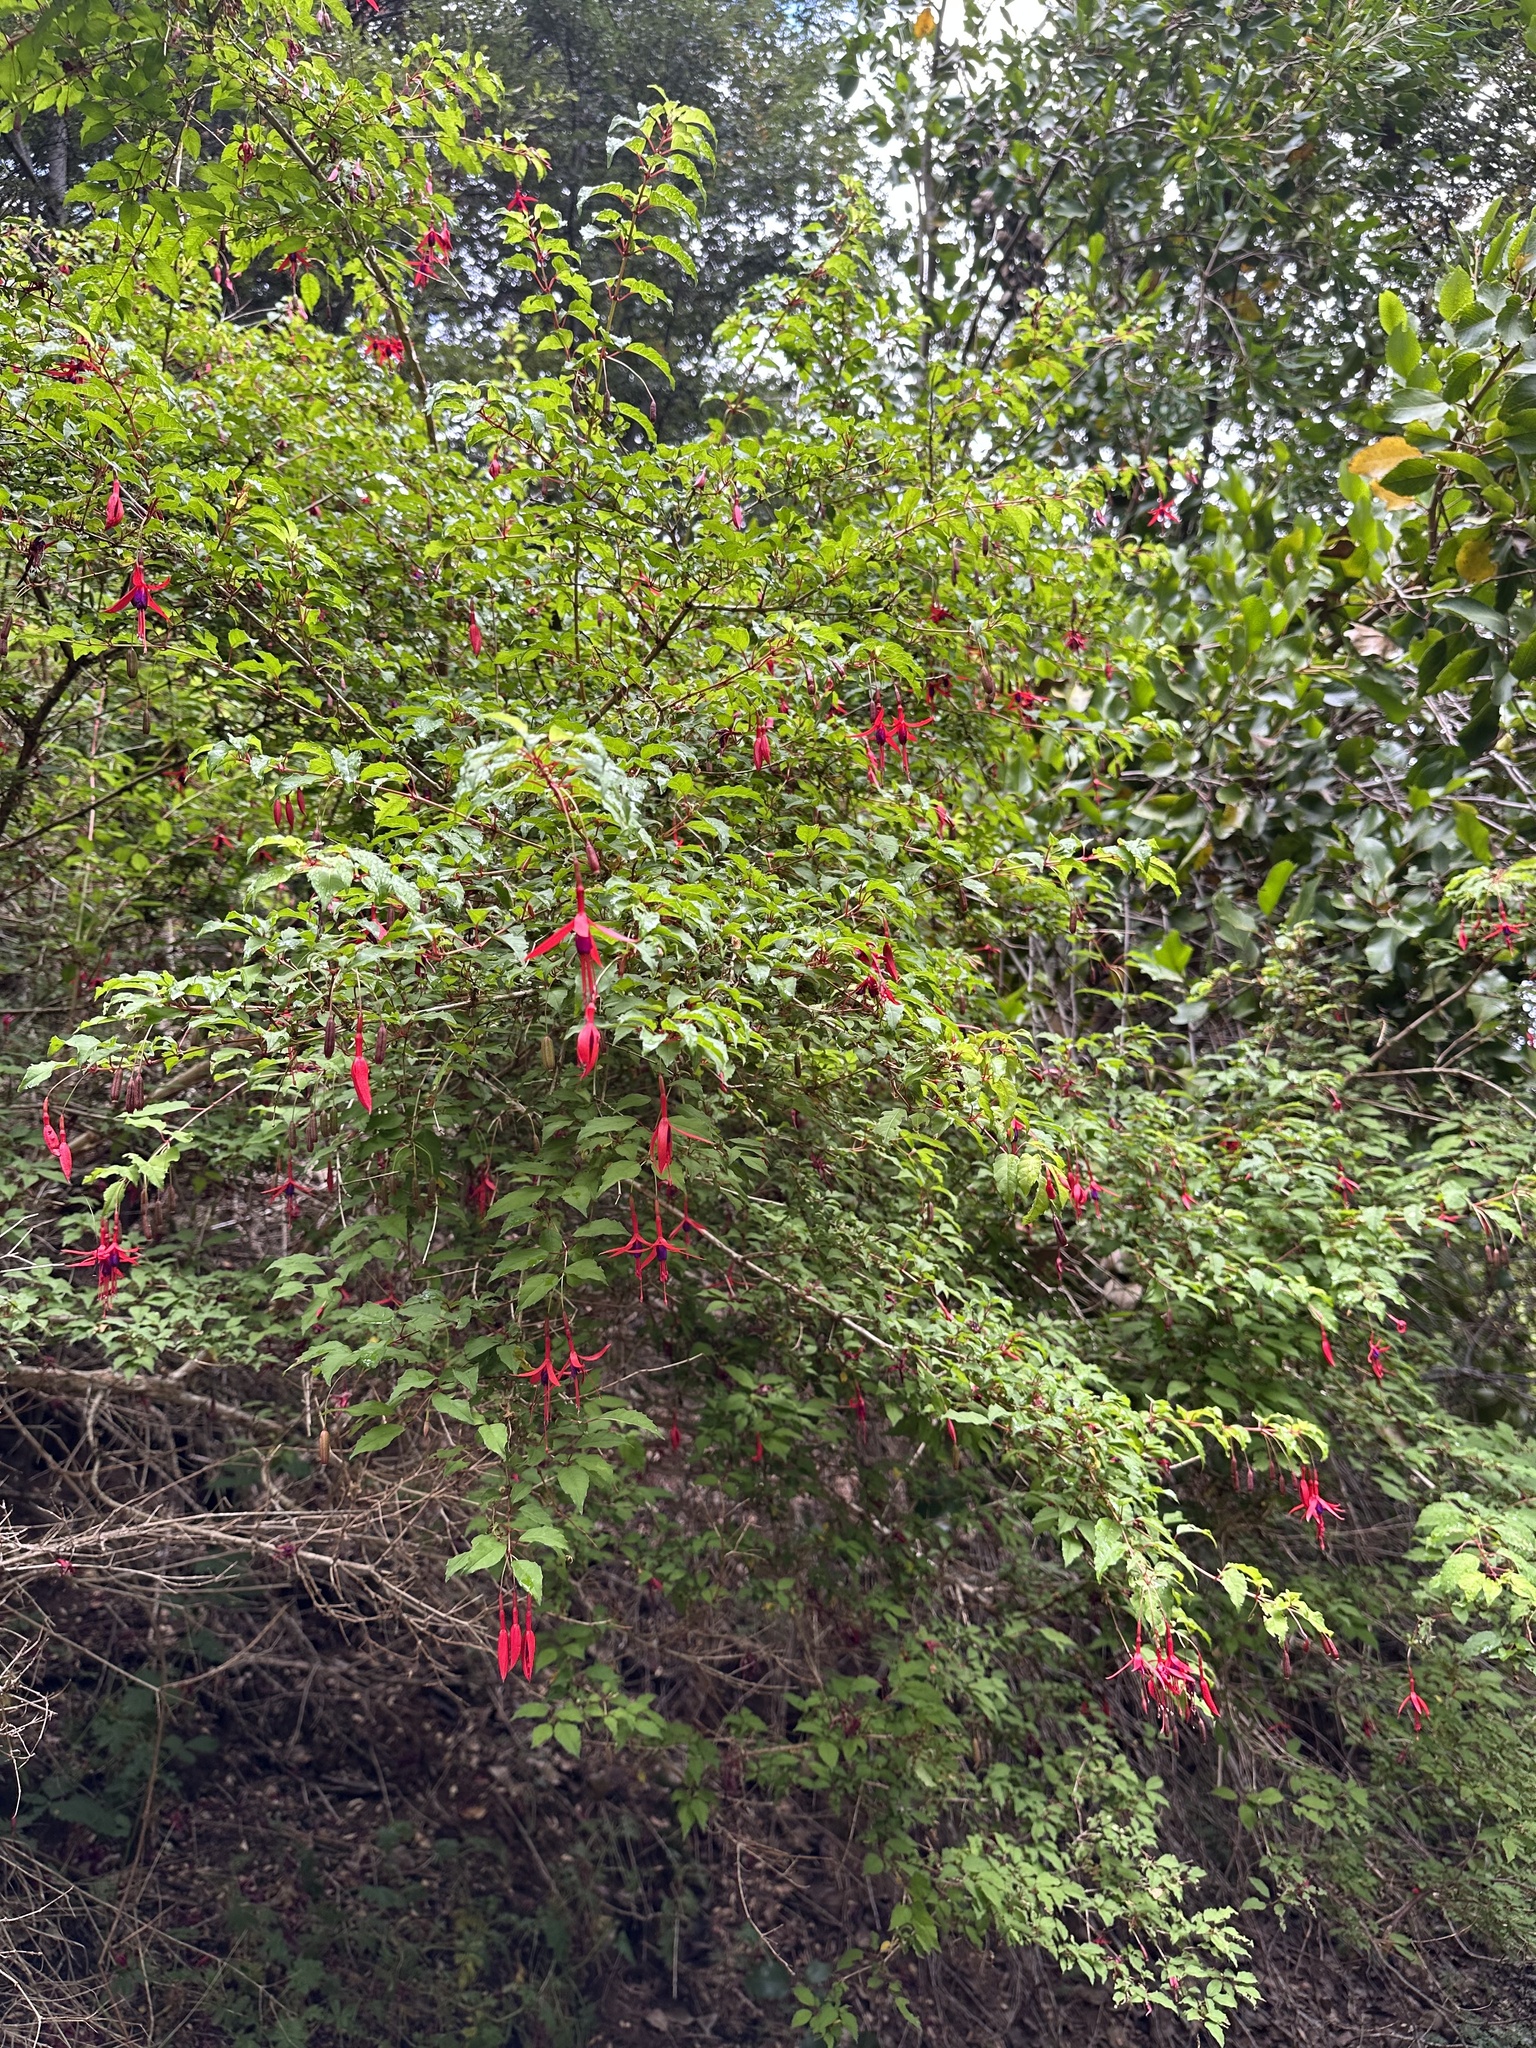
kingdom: Plantae
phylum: Tracheophyta
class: Magnoliopsida
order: Myrtales
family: Onagraceae
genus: Fuchsia
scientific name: Fuchsia magellanica
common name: Hardy fuchsia
